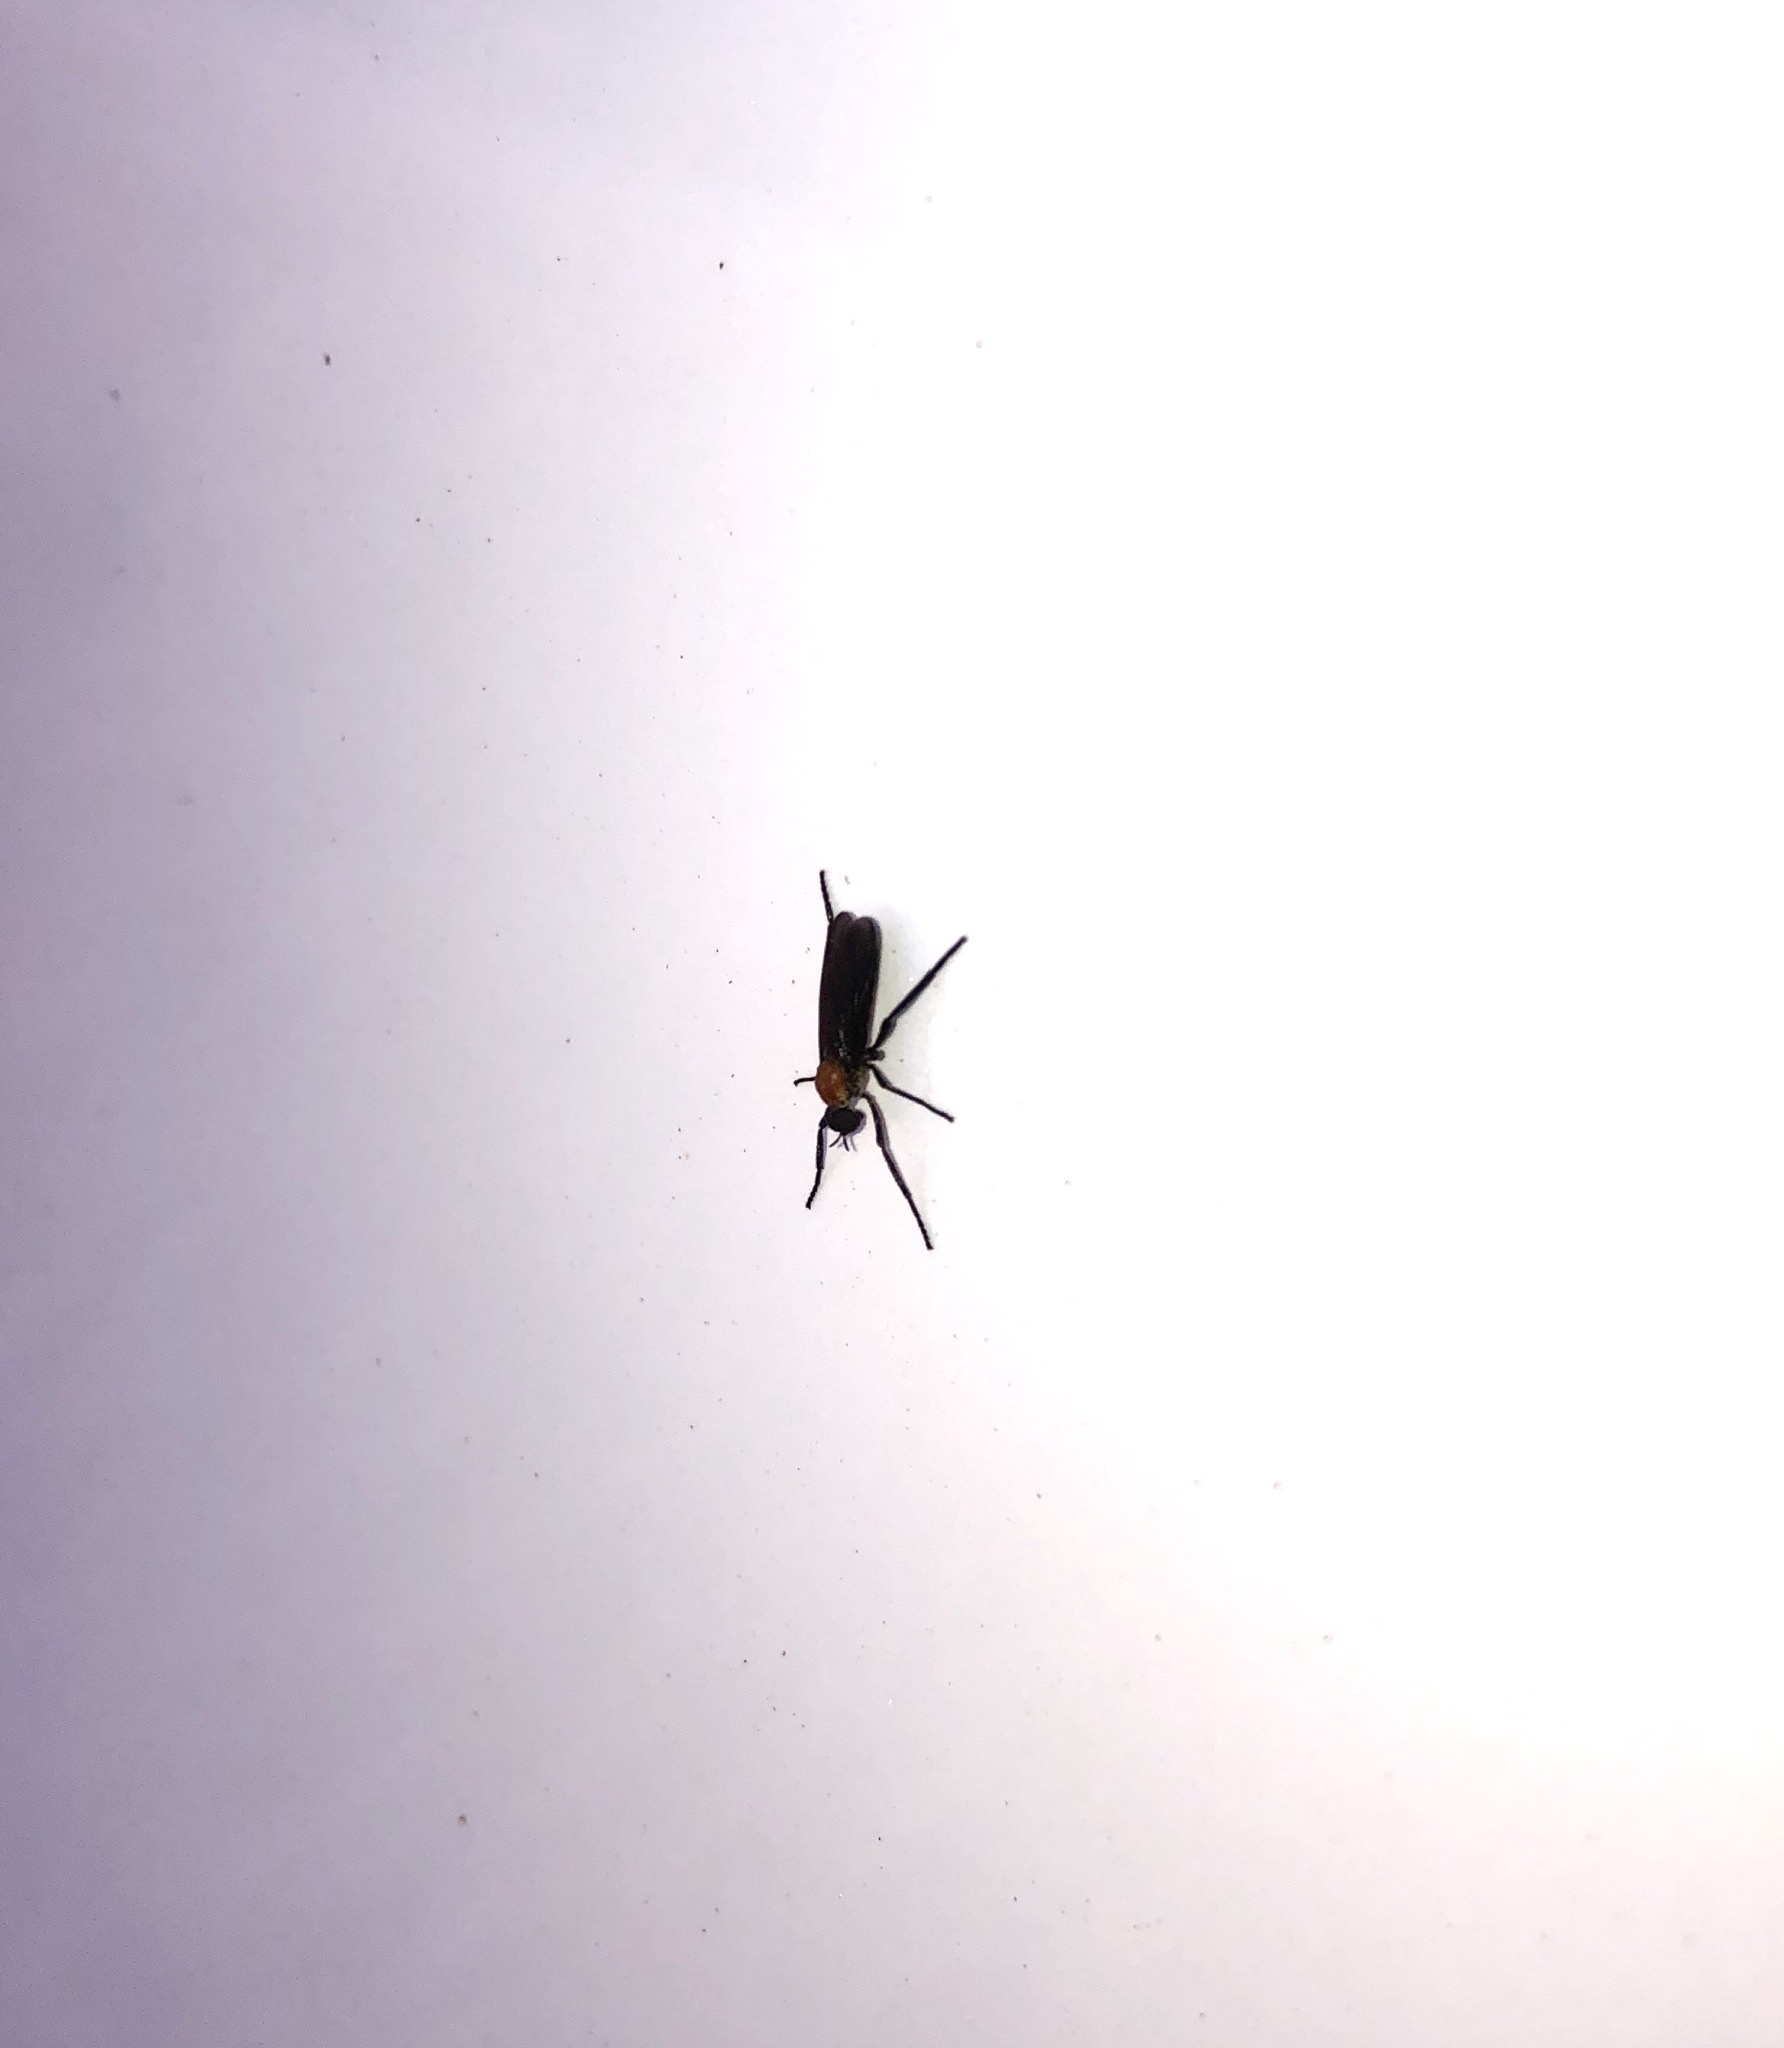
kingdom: Animalia
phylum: Arthropoda
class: Insecta
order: Diptera
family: Bibionidae
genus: Plecia
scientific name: Plecia nearctica
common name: March fly
